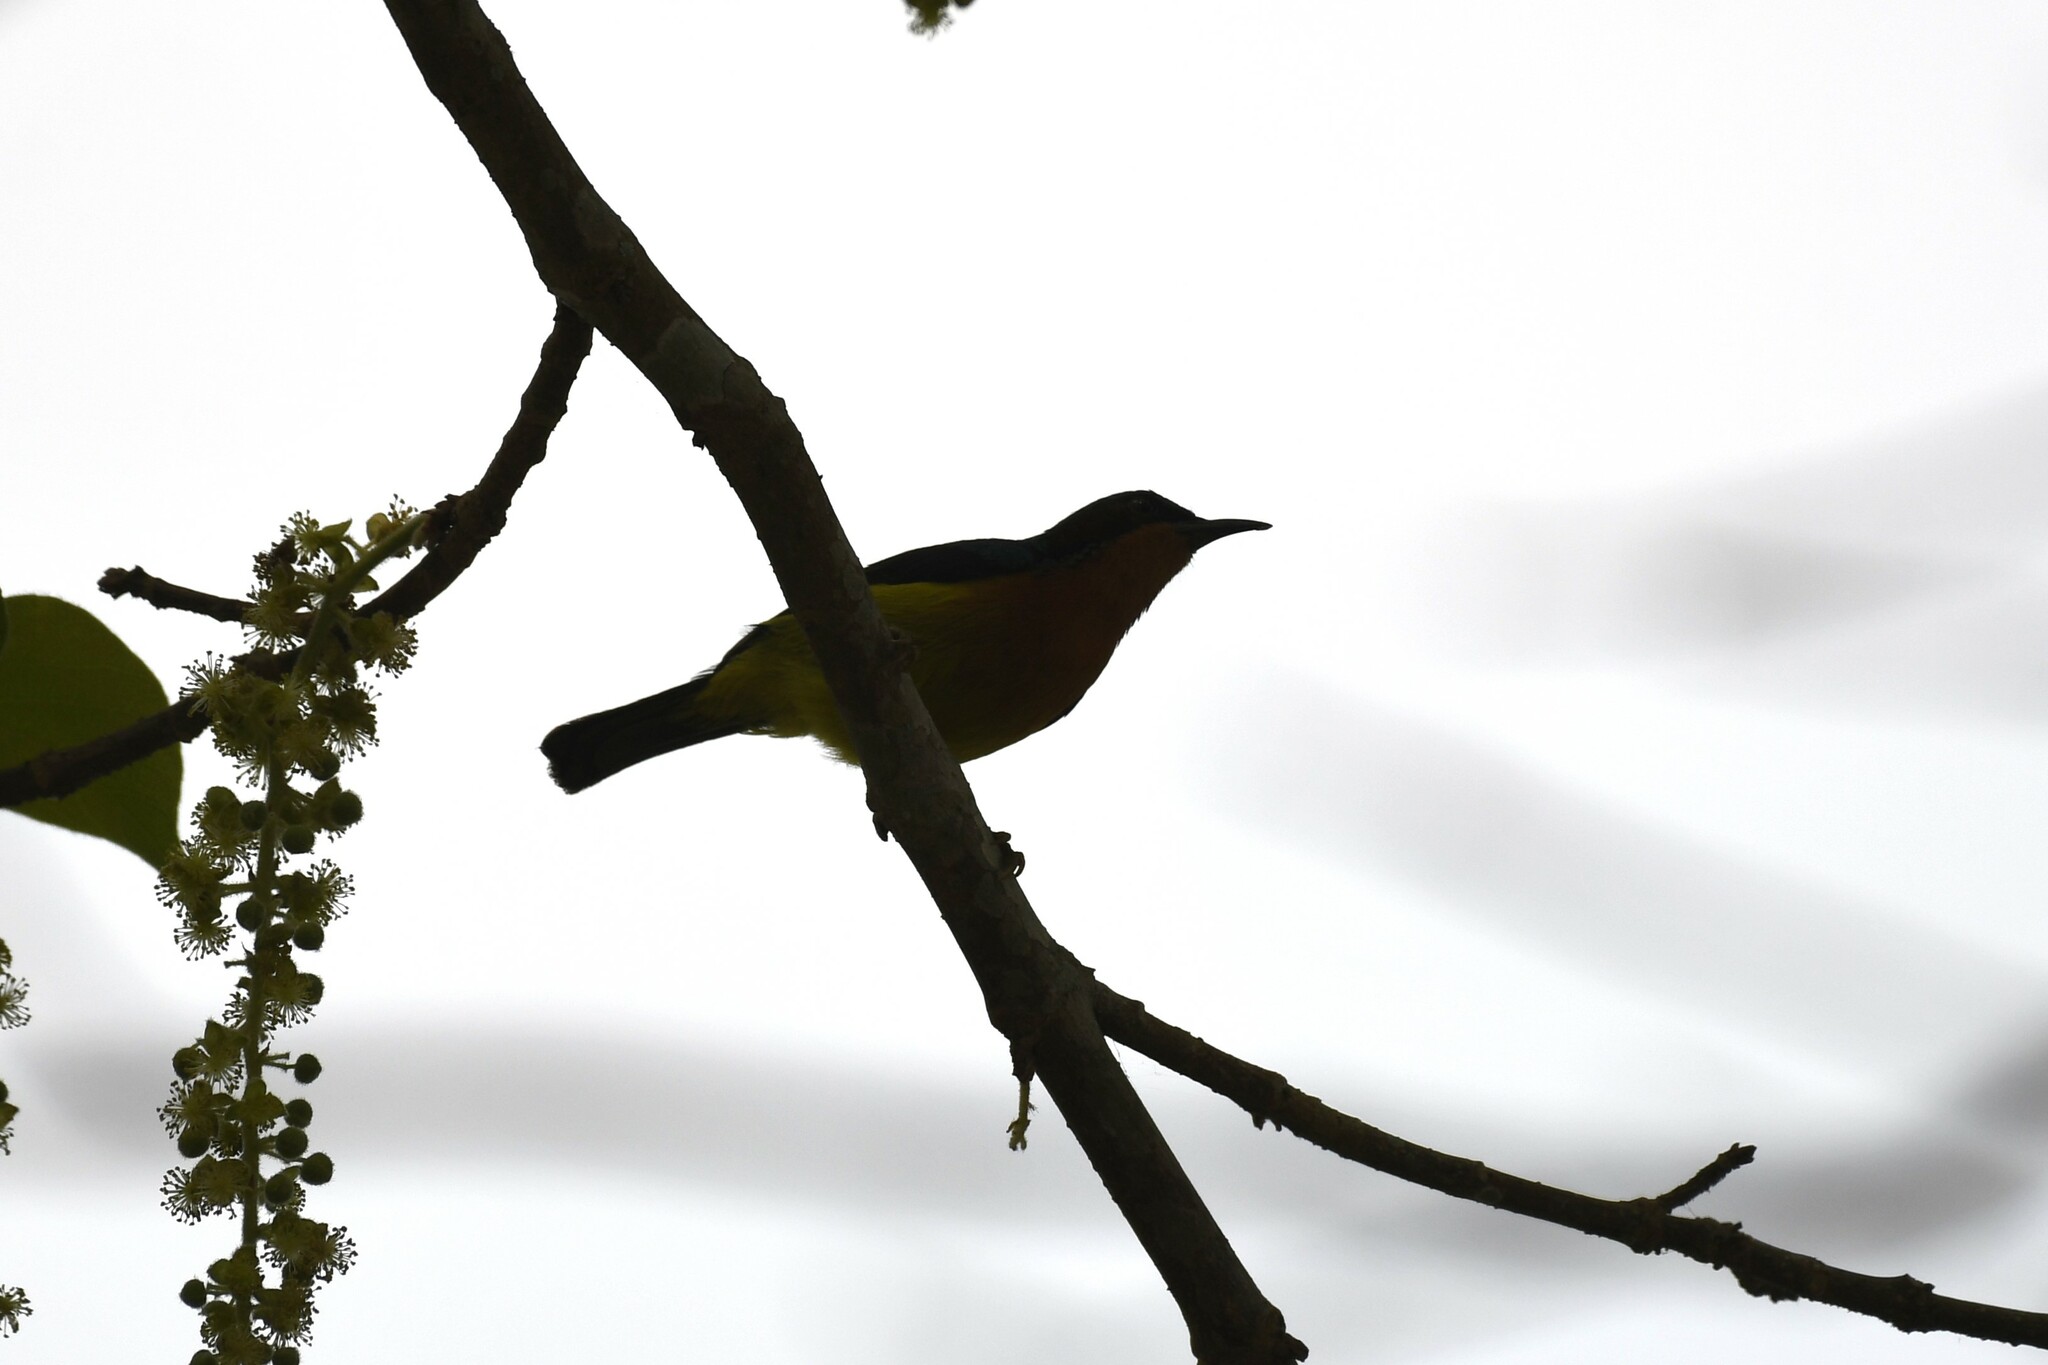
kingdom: Animalia
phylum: Chordata
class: Aves
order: Passeriformes
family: Nectariniidae
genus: Chalcoparia
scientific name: Chalcoparia singalensis
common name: Ruby-cheeked sunbird
